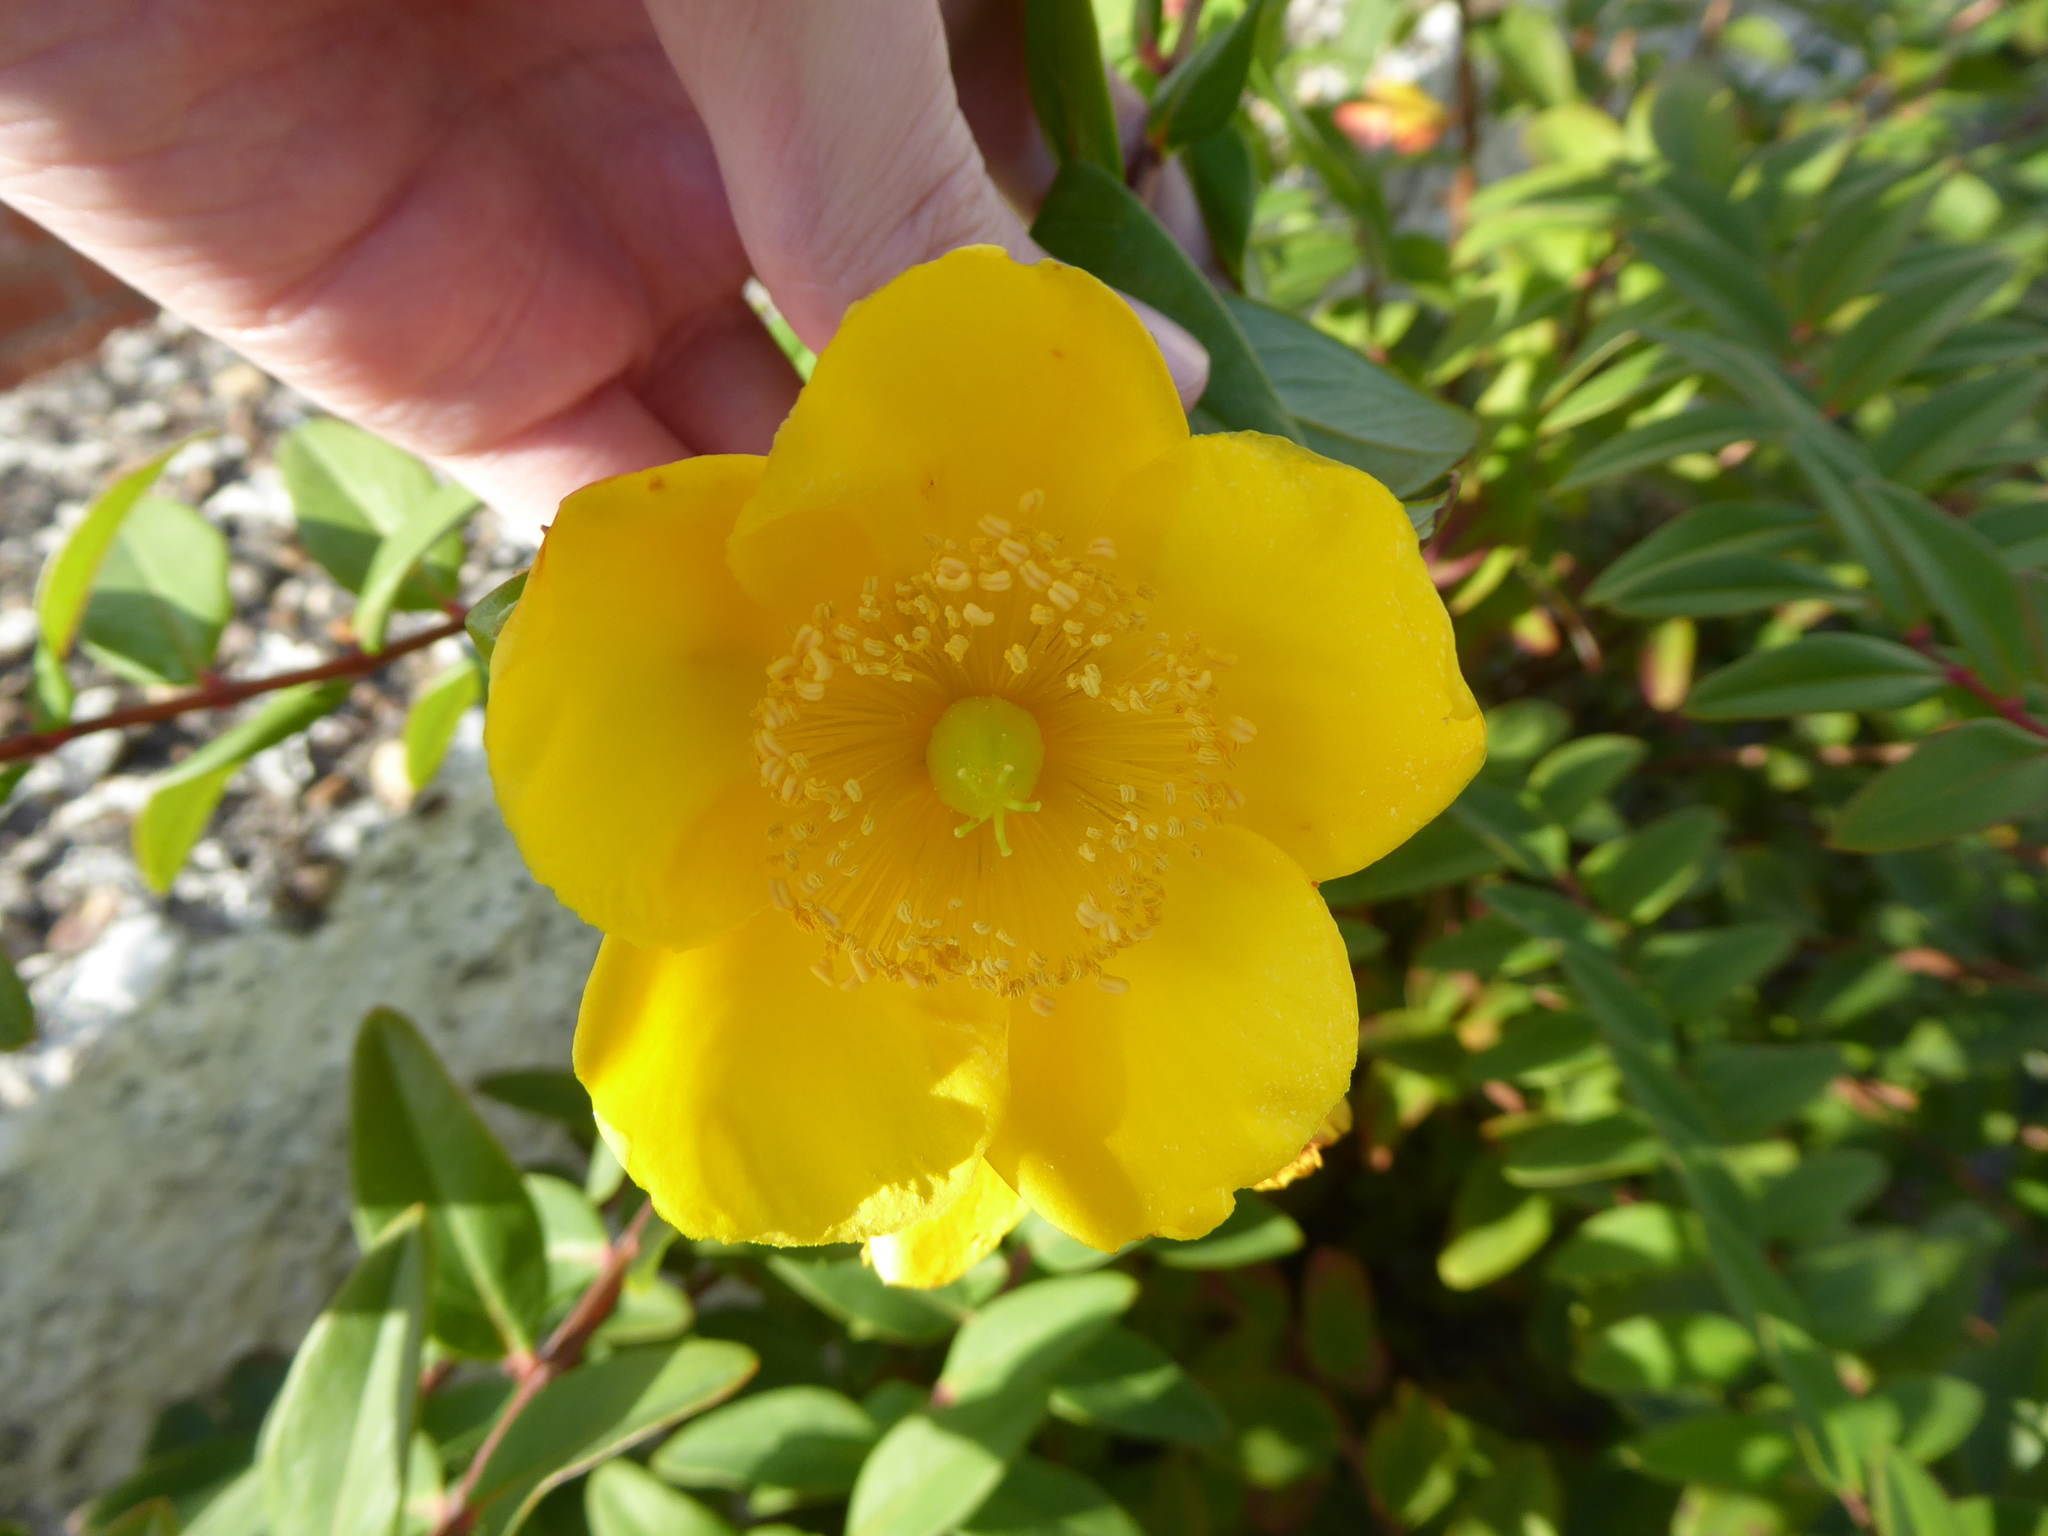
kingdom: Plantae
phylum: Tracheophyta
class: Magnoliopsida
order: Malpighiales
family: Hypericaceae
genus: Hypericum
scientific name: Hypericum hidcoteense
